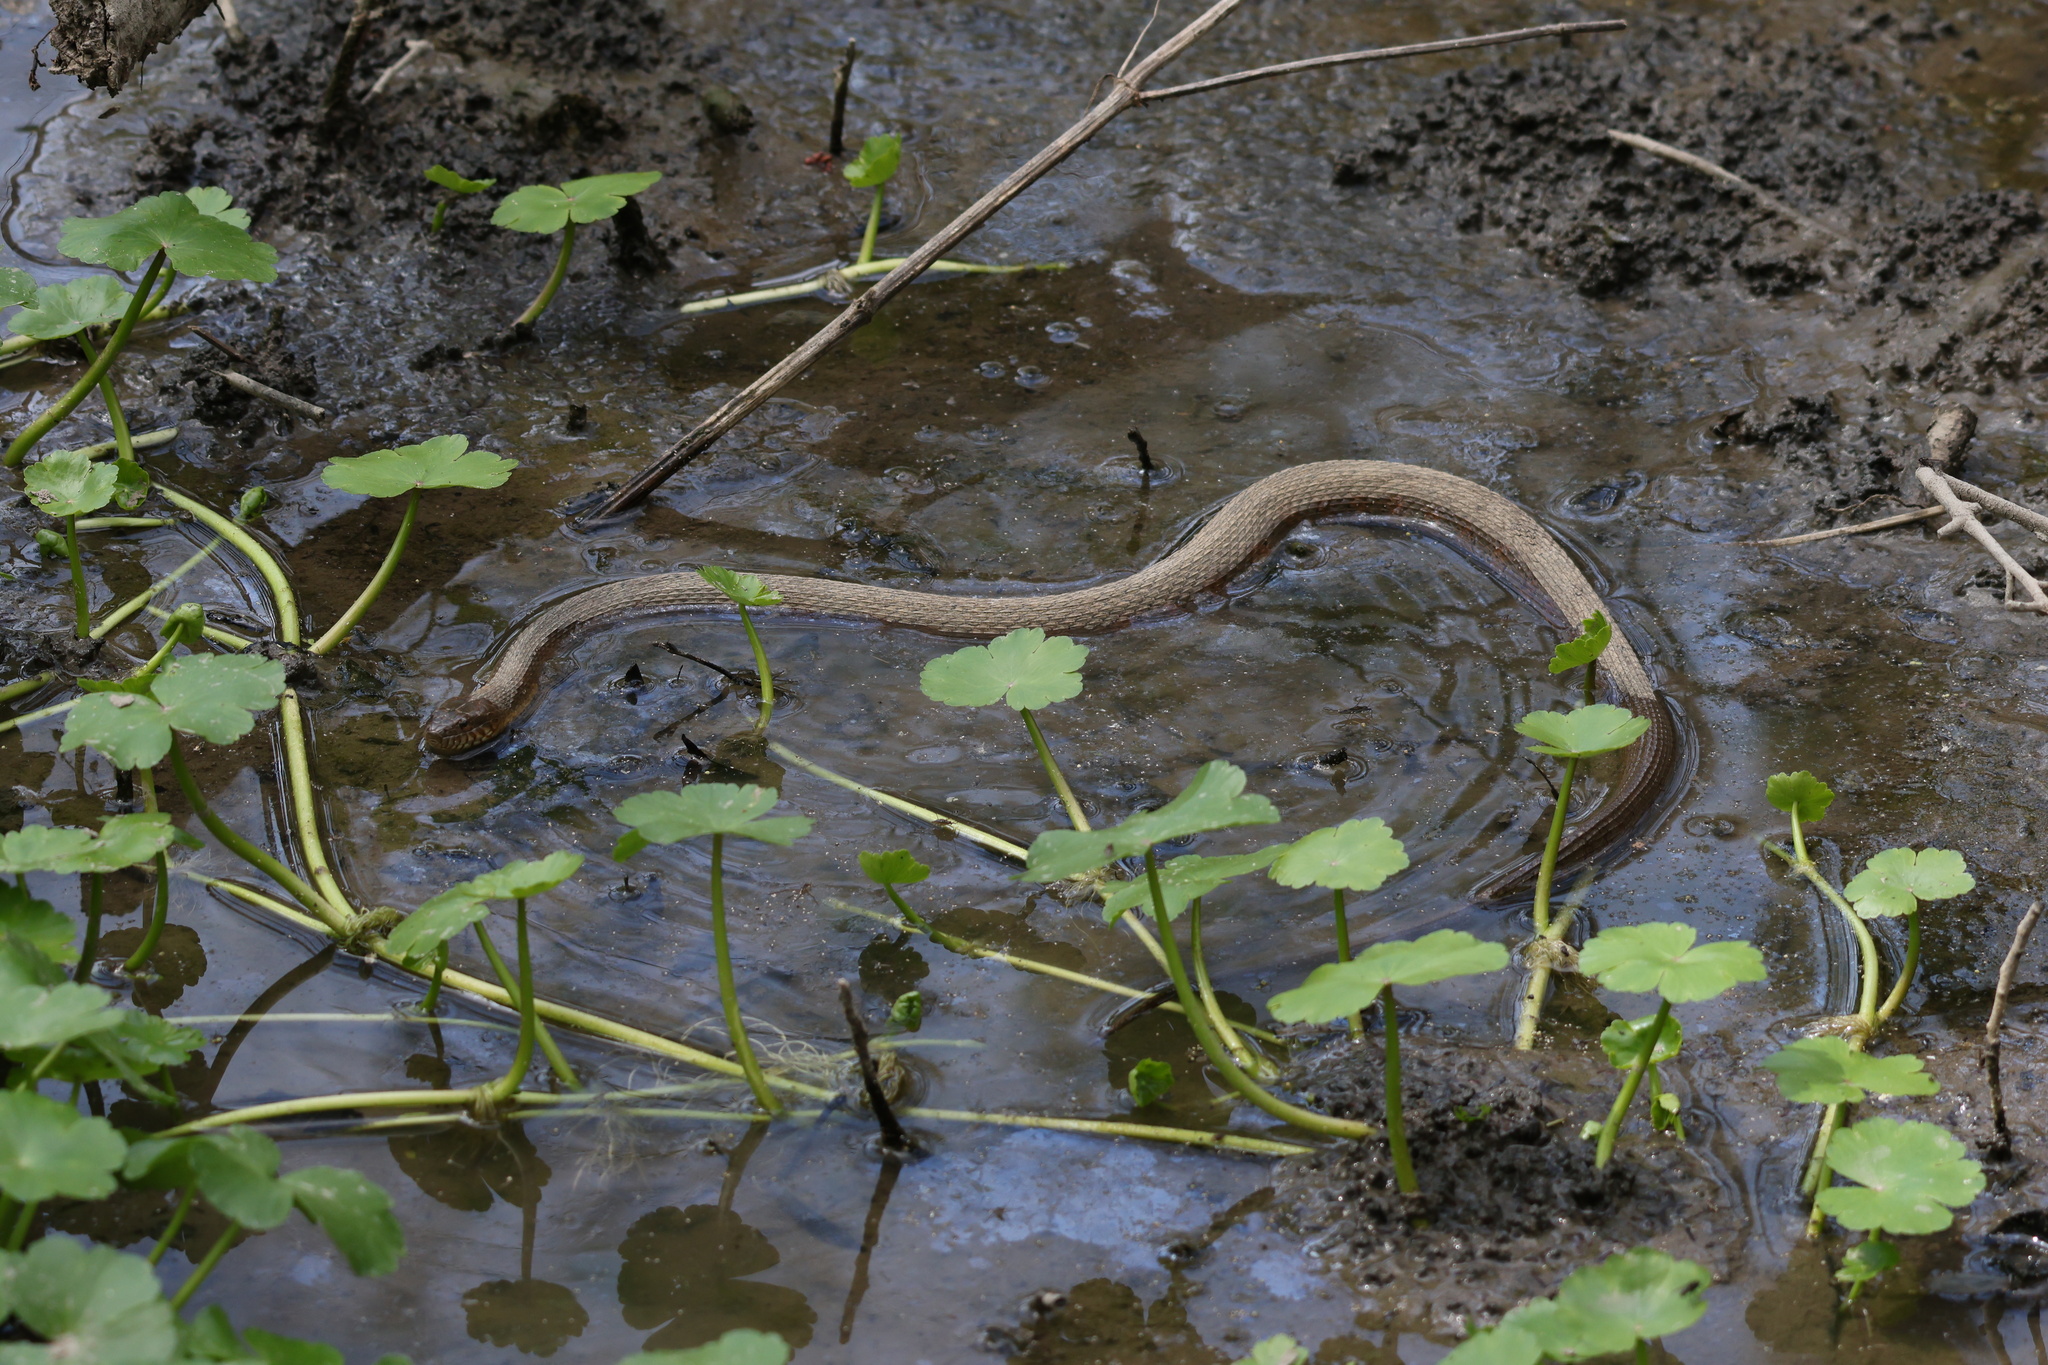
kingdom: Animalia
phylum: Chordata
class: Squamata
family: Colubridae
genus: Nerodia
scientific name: Nerodia sipedon
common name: Northern water snake
